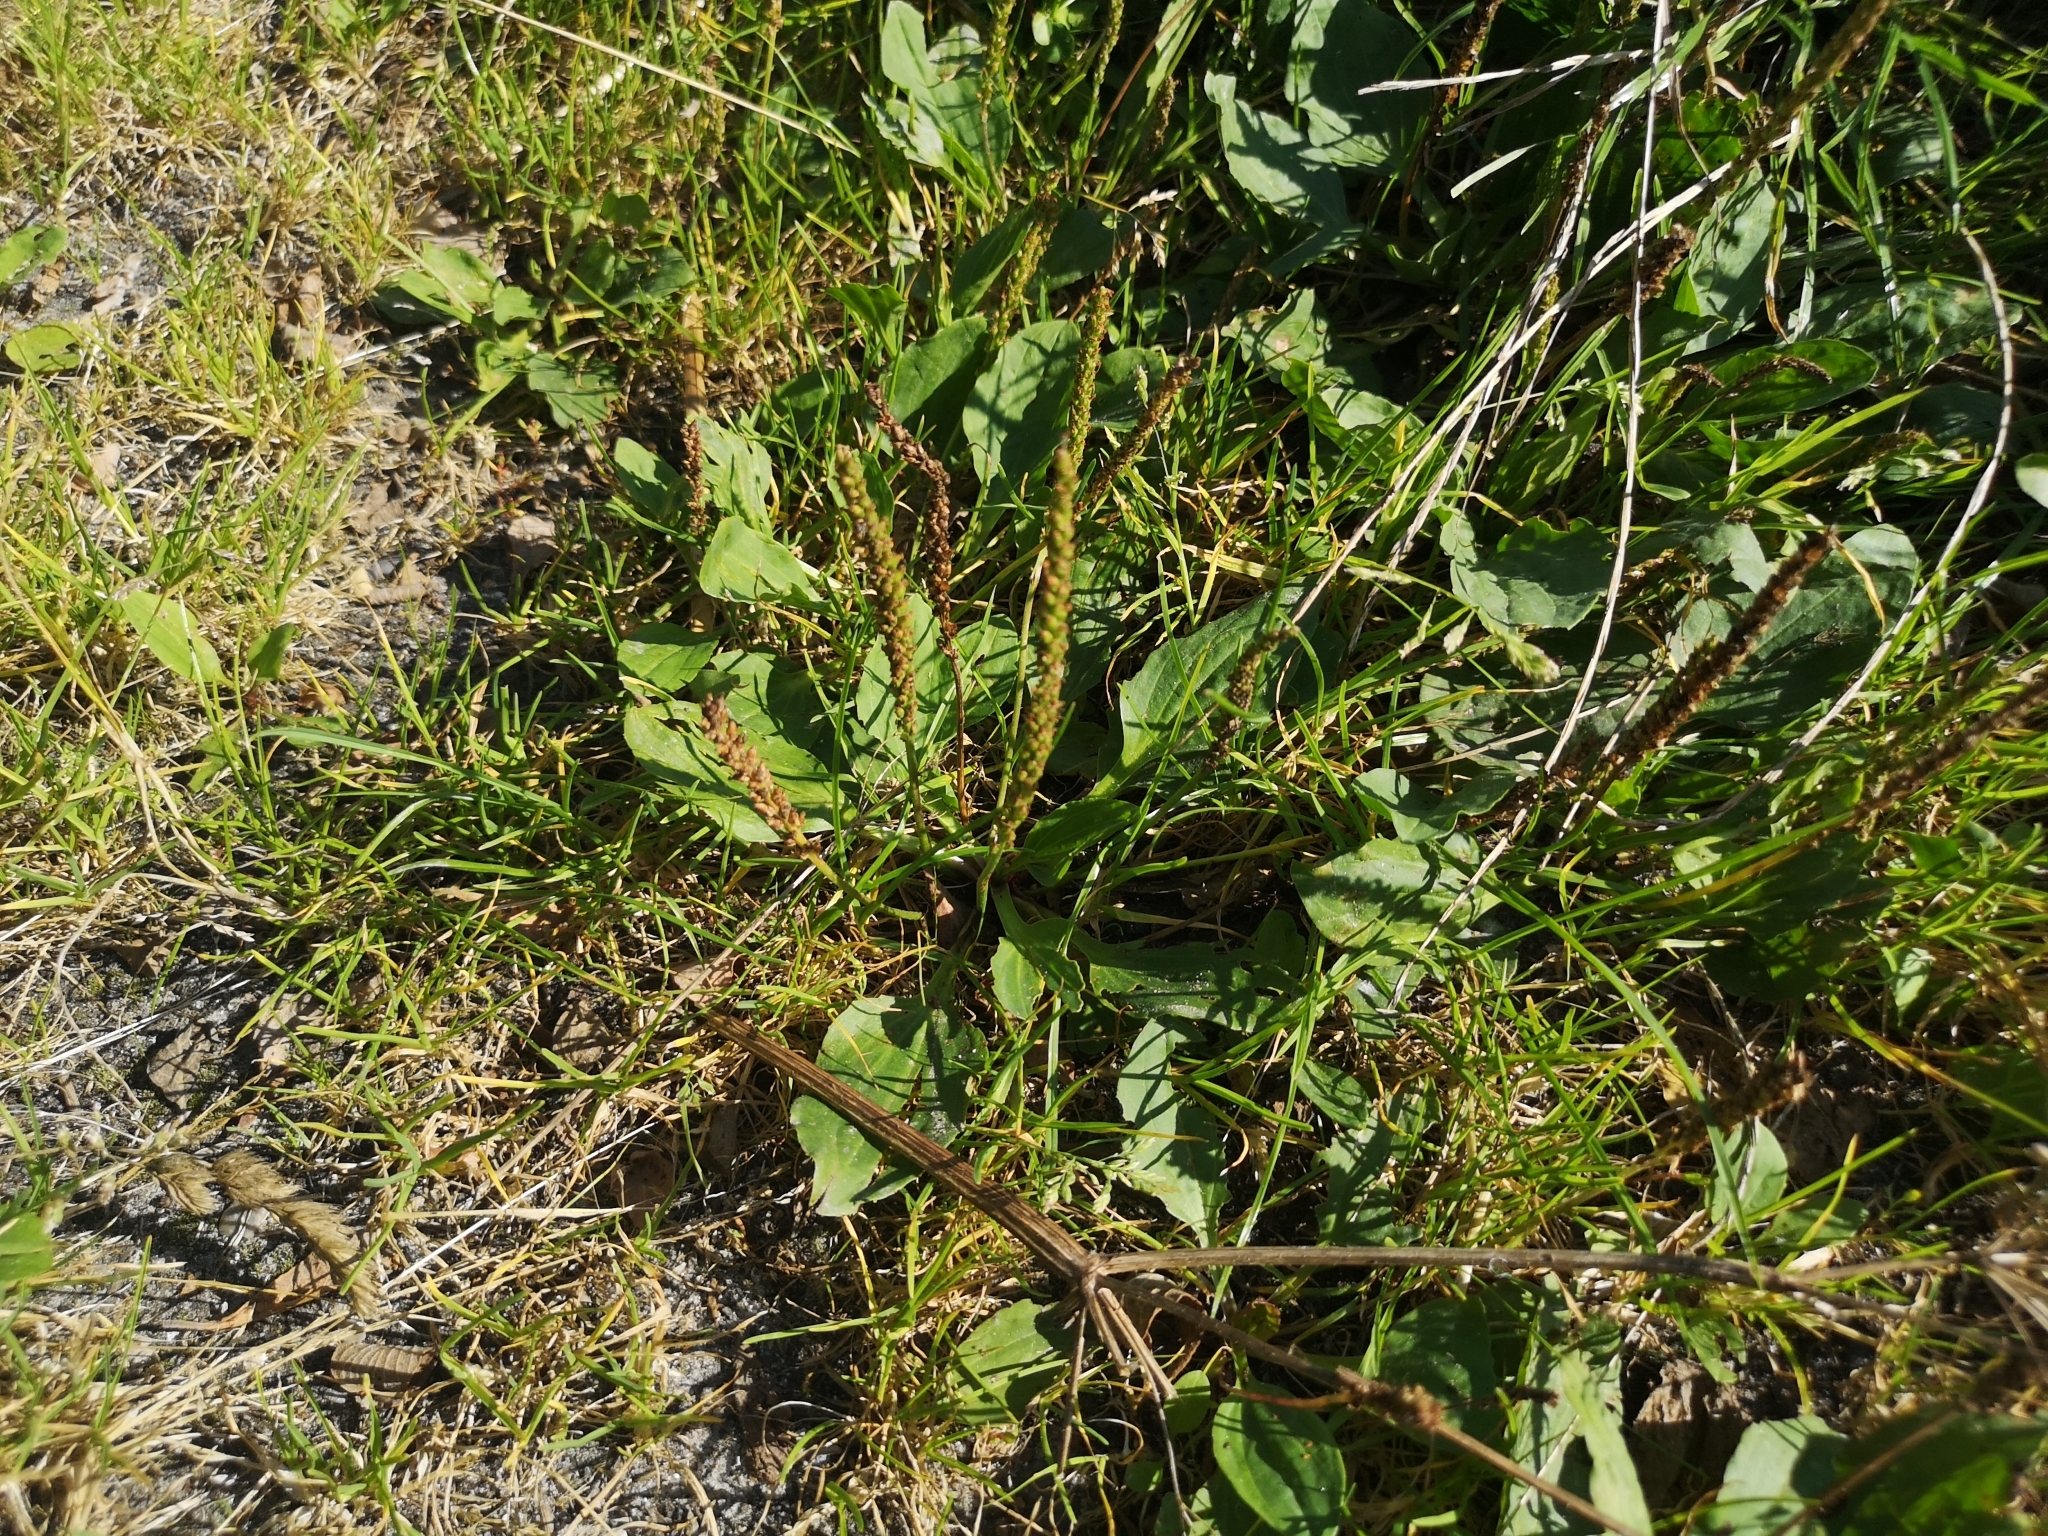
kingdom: Plantae
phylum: Tracheophyta
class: Magnoliopsida
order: Lamiales
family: Plantaginaceae
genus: Plantago
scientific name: Plantago major
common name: Common plantain
